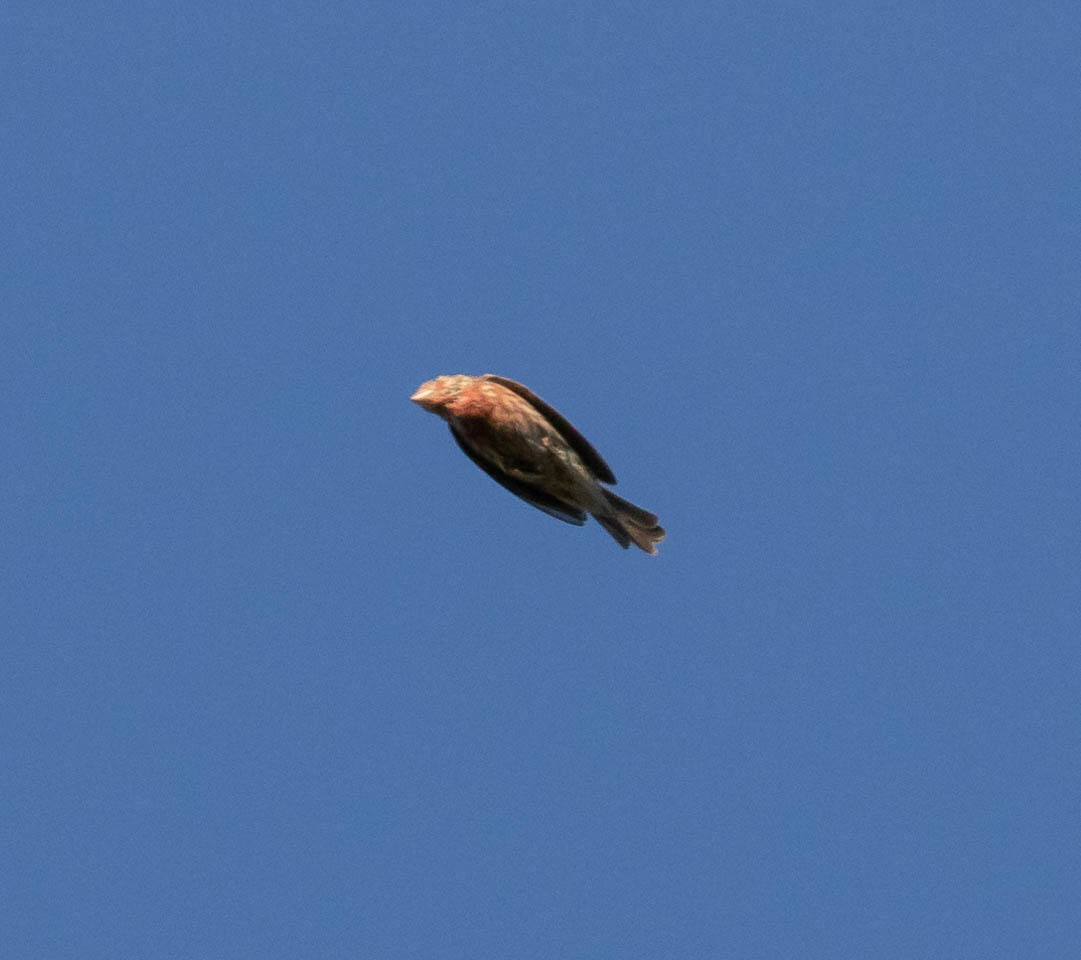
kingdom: Animalia
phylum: Chordata
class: Aves
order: Passeriformes
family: Fringillidae
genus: Haemorhous
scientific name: Haemorhous mexicanus
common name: House finch
